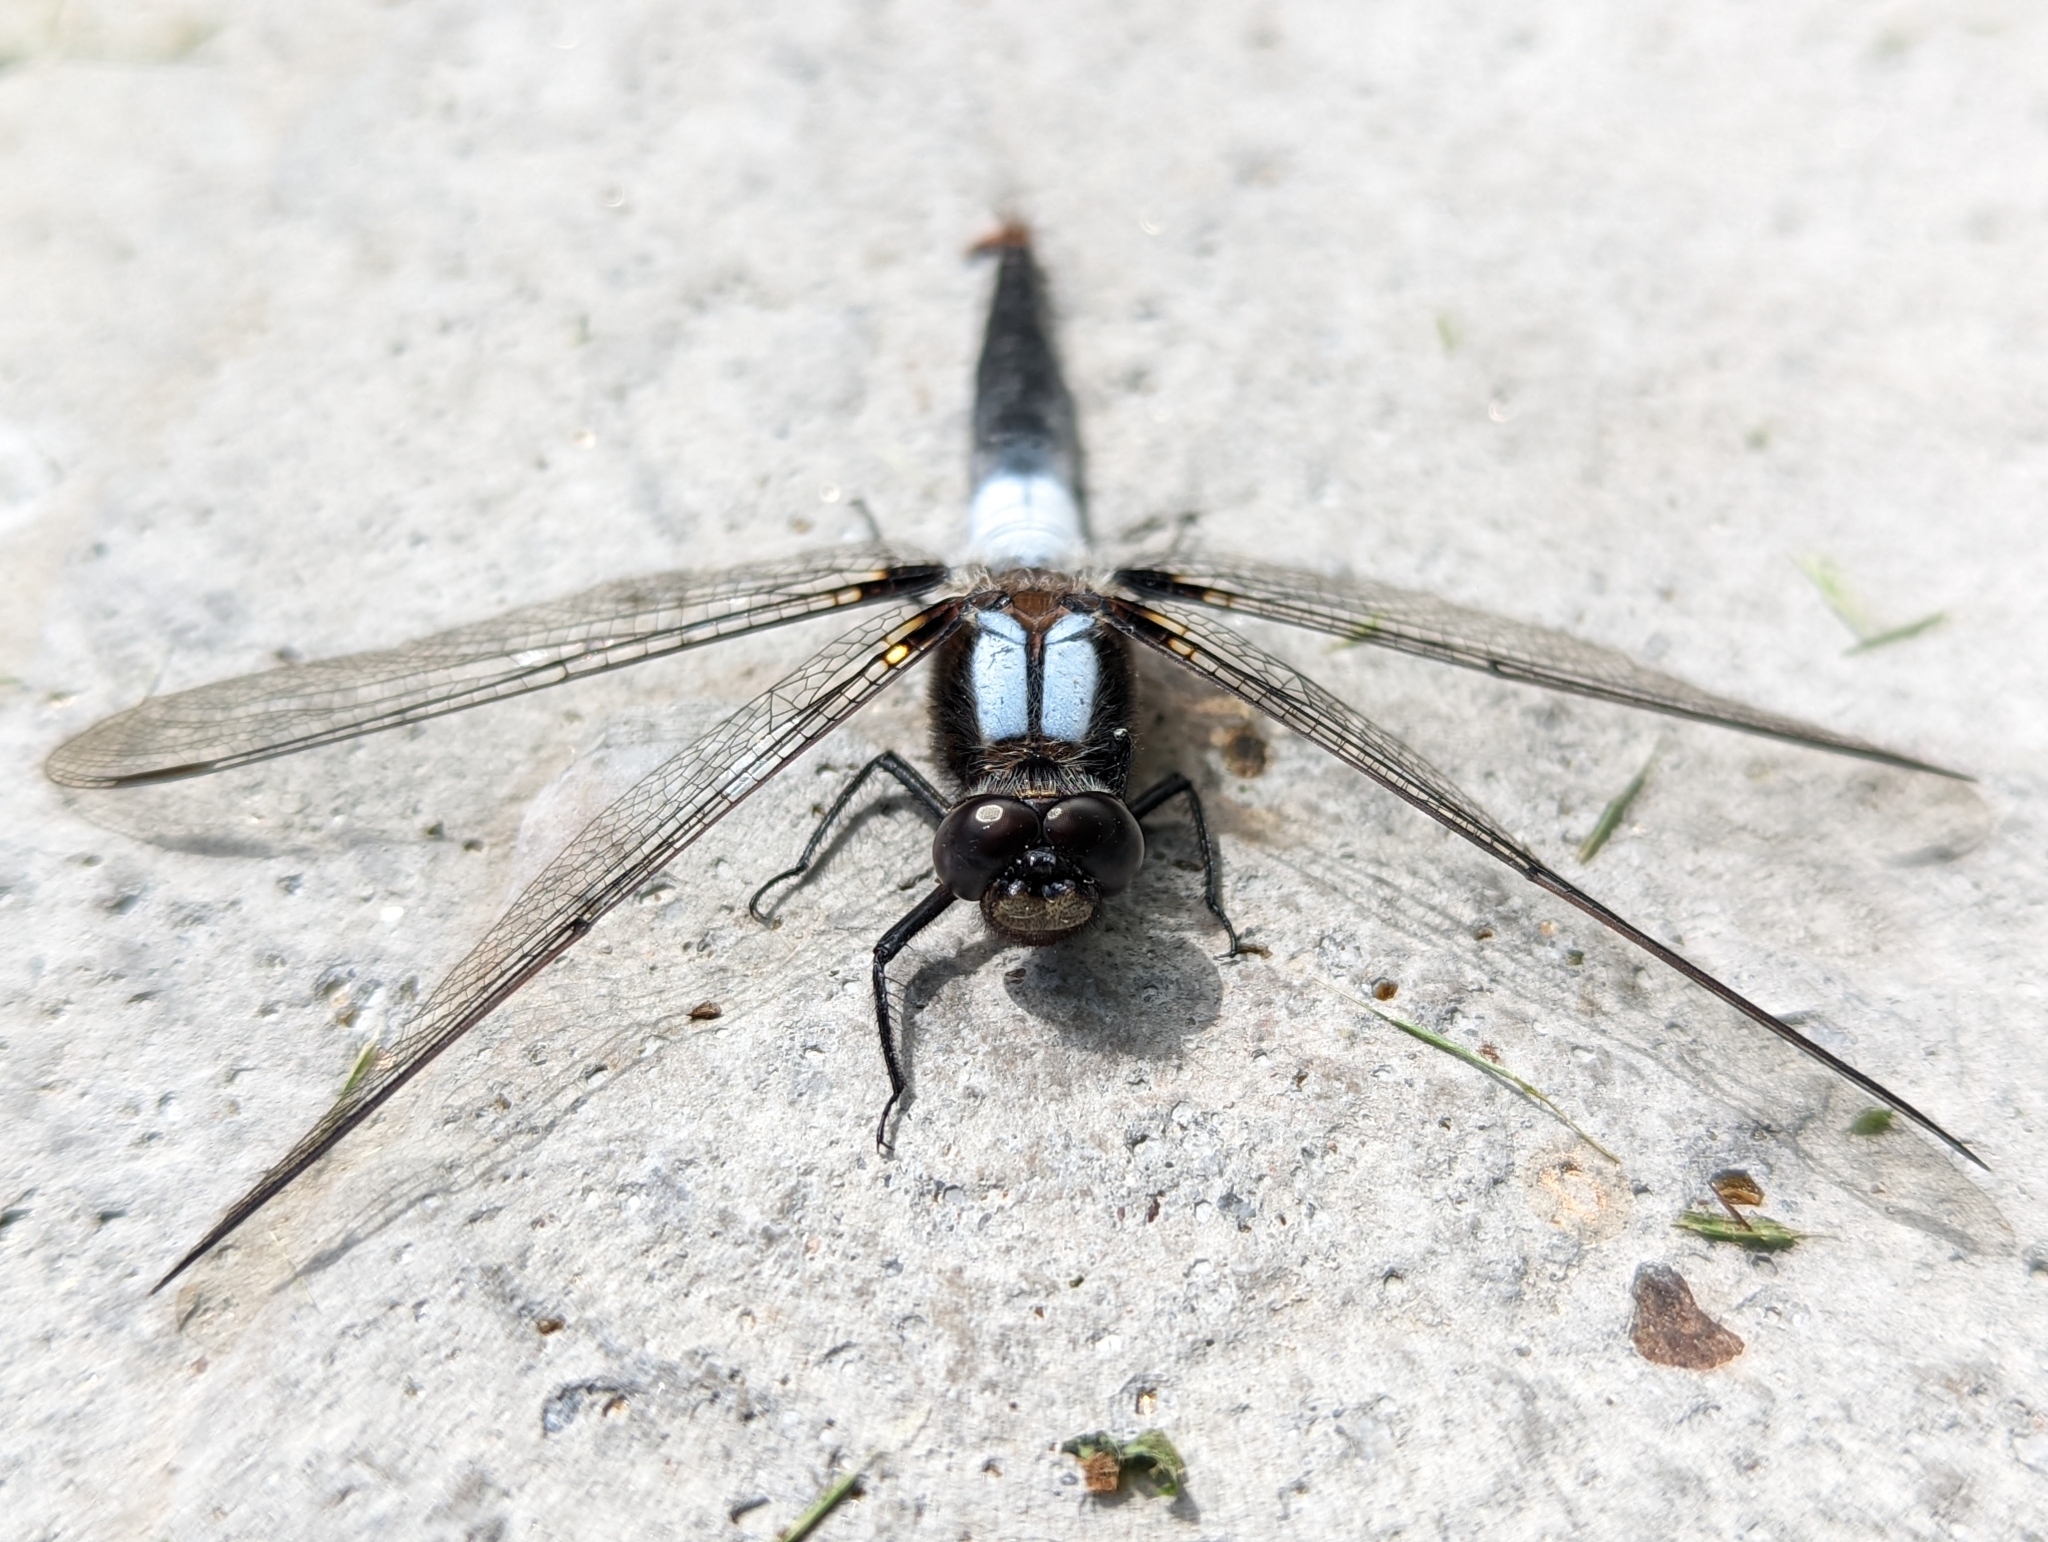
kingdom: Animalia
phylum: Arthropoda
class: Insecta
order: Odonata
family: Libellulidae
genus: Ladona
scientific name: Ladona julia
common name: Chalk-fronted corporal
